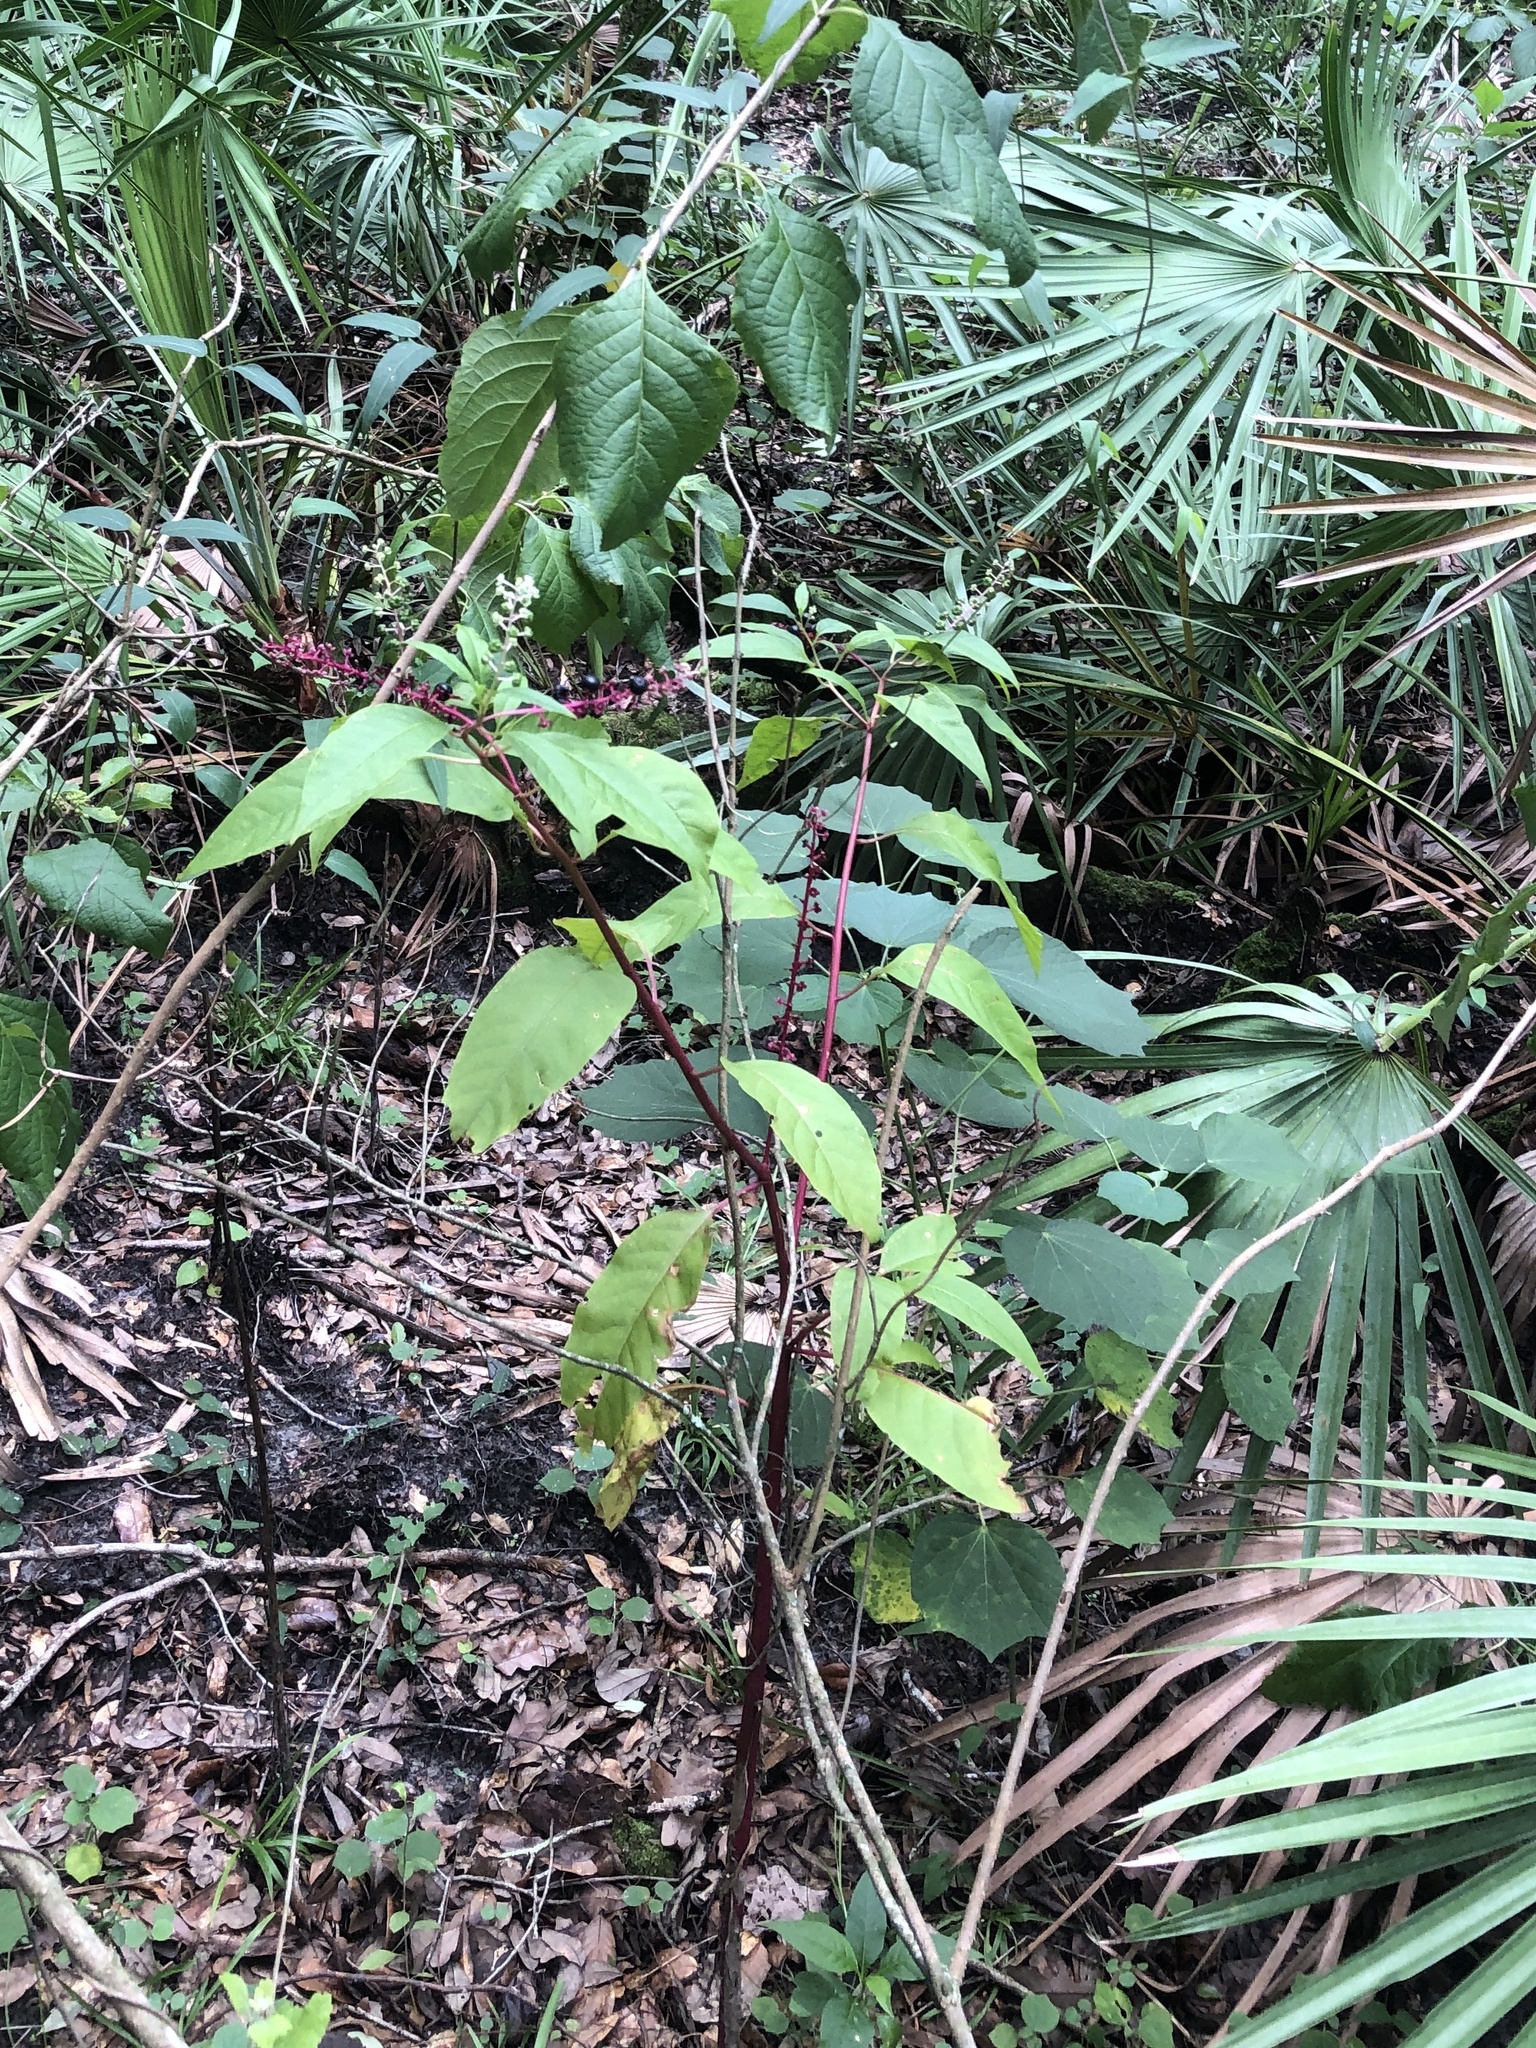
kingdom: Plantae
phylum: Tracheophyta
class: Magnoliopsida
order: Caryophyllales
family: Phytolaccaceae
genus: Phytolacca
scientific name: Phytolacca americana
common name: American pokeweed
